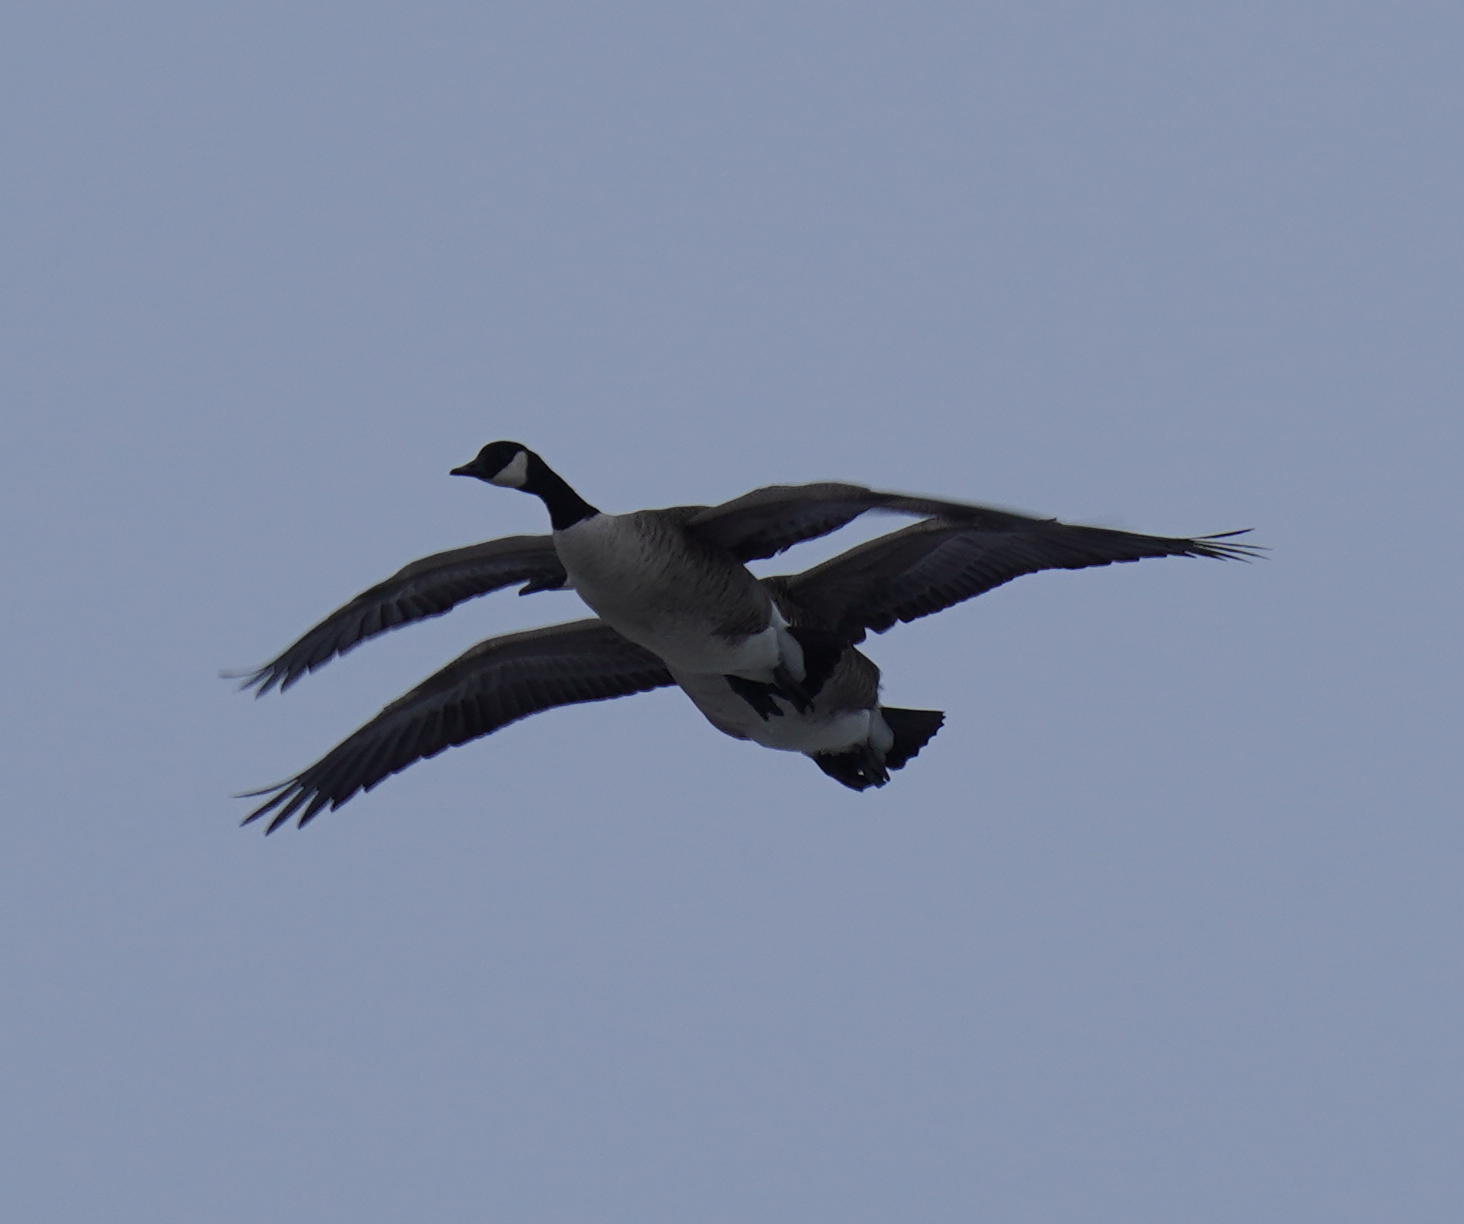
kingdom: Animalia
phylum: Chordata
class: Aves
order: Anseriformes
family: Anatidae
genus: Branta
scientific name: Branta canadensis
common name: Canada goose
